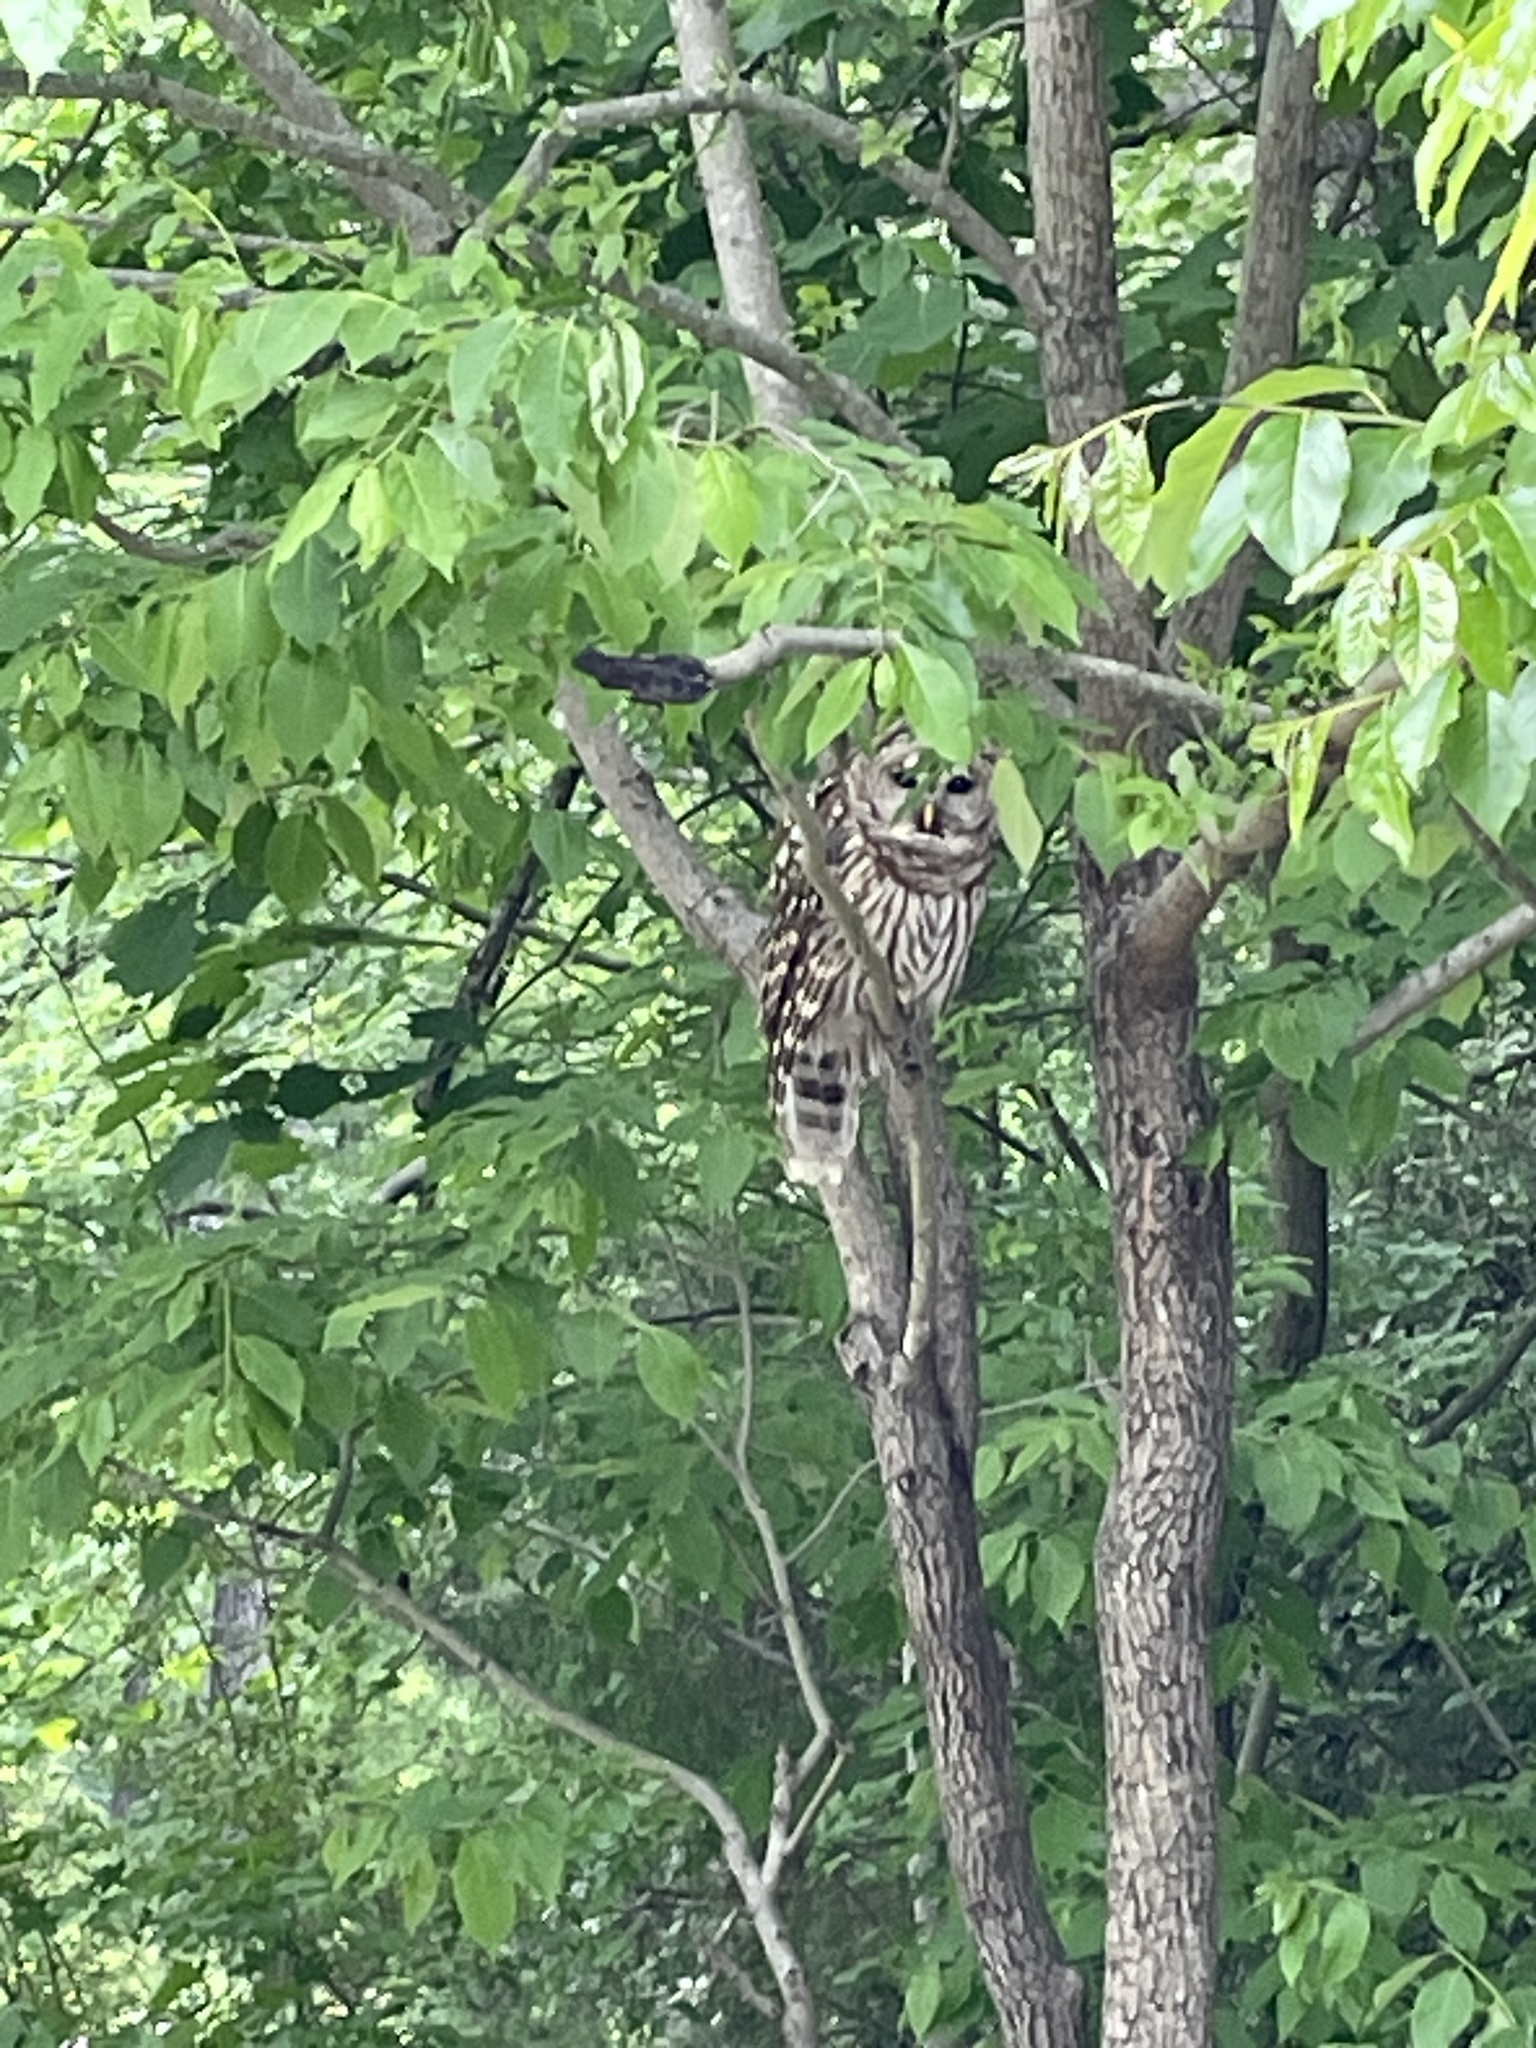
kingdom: Animalia
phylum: Chordata
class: Aves
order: Strigiformes
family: Strigidae
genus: Strix
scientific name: Strix varia
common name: Barred owl
